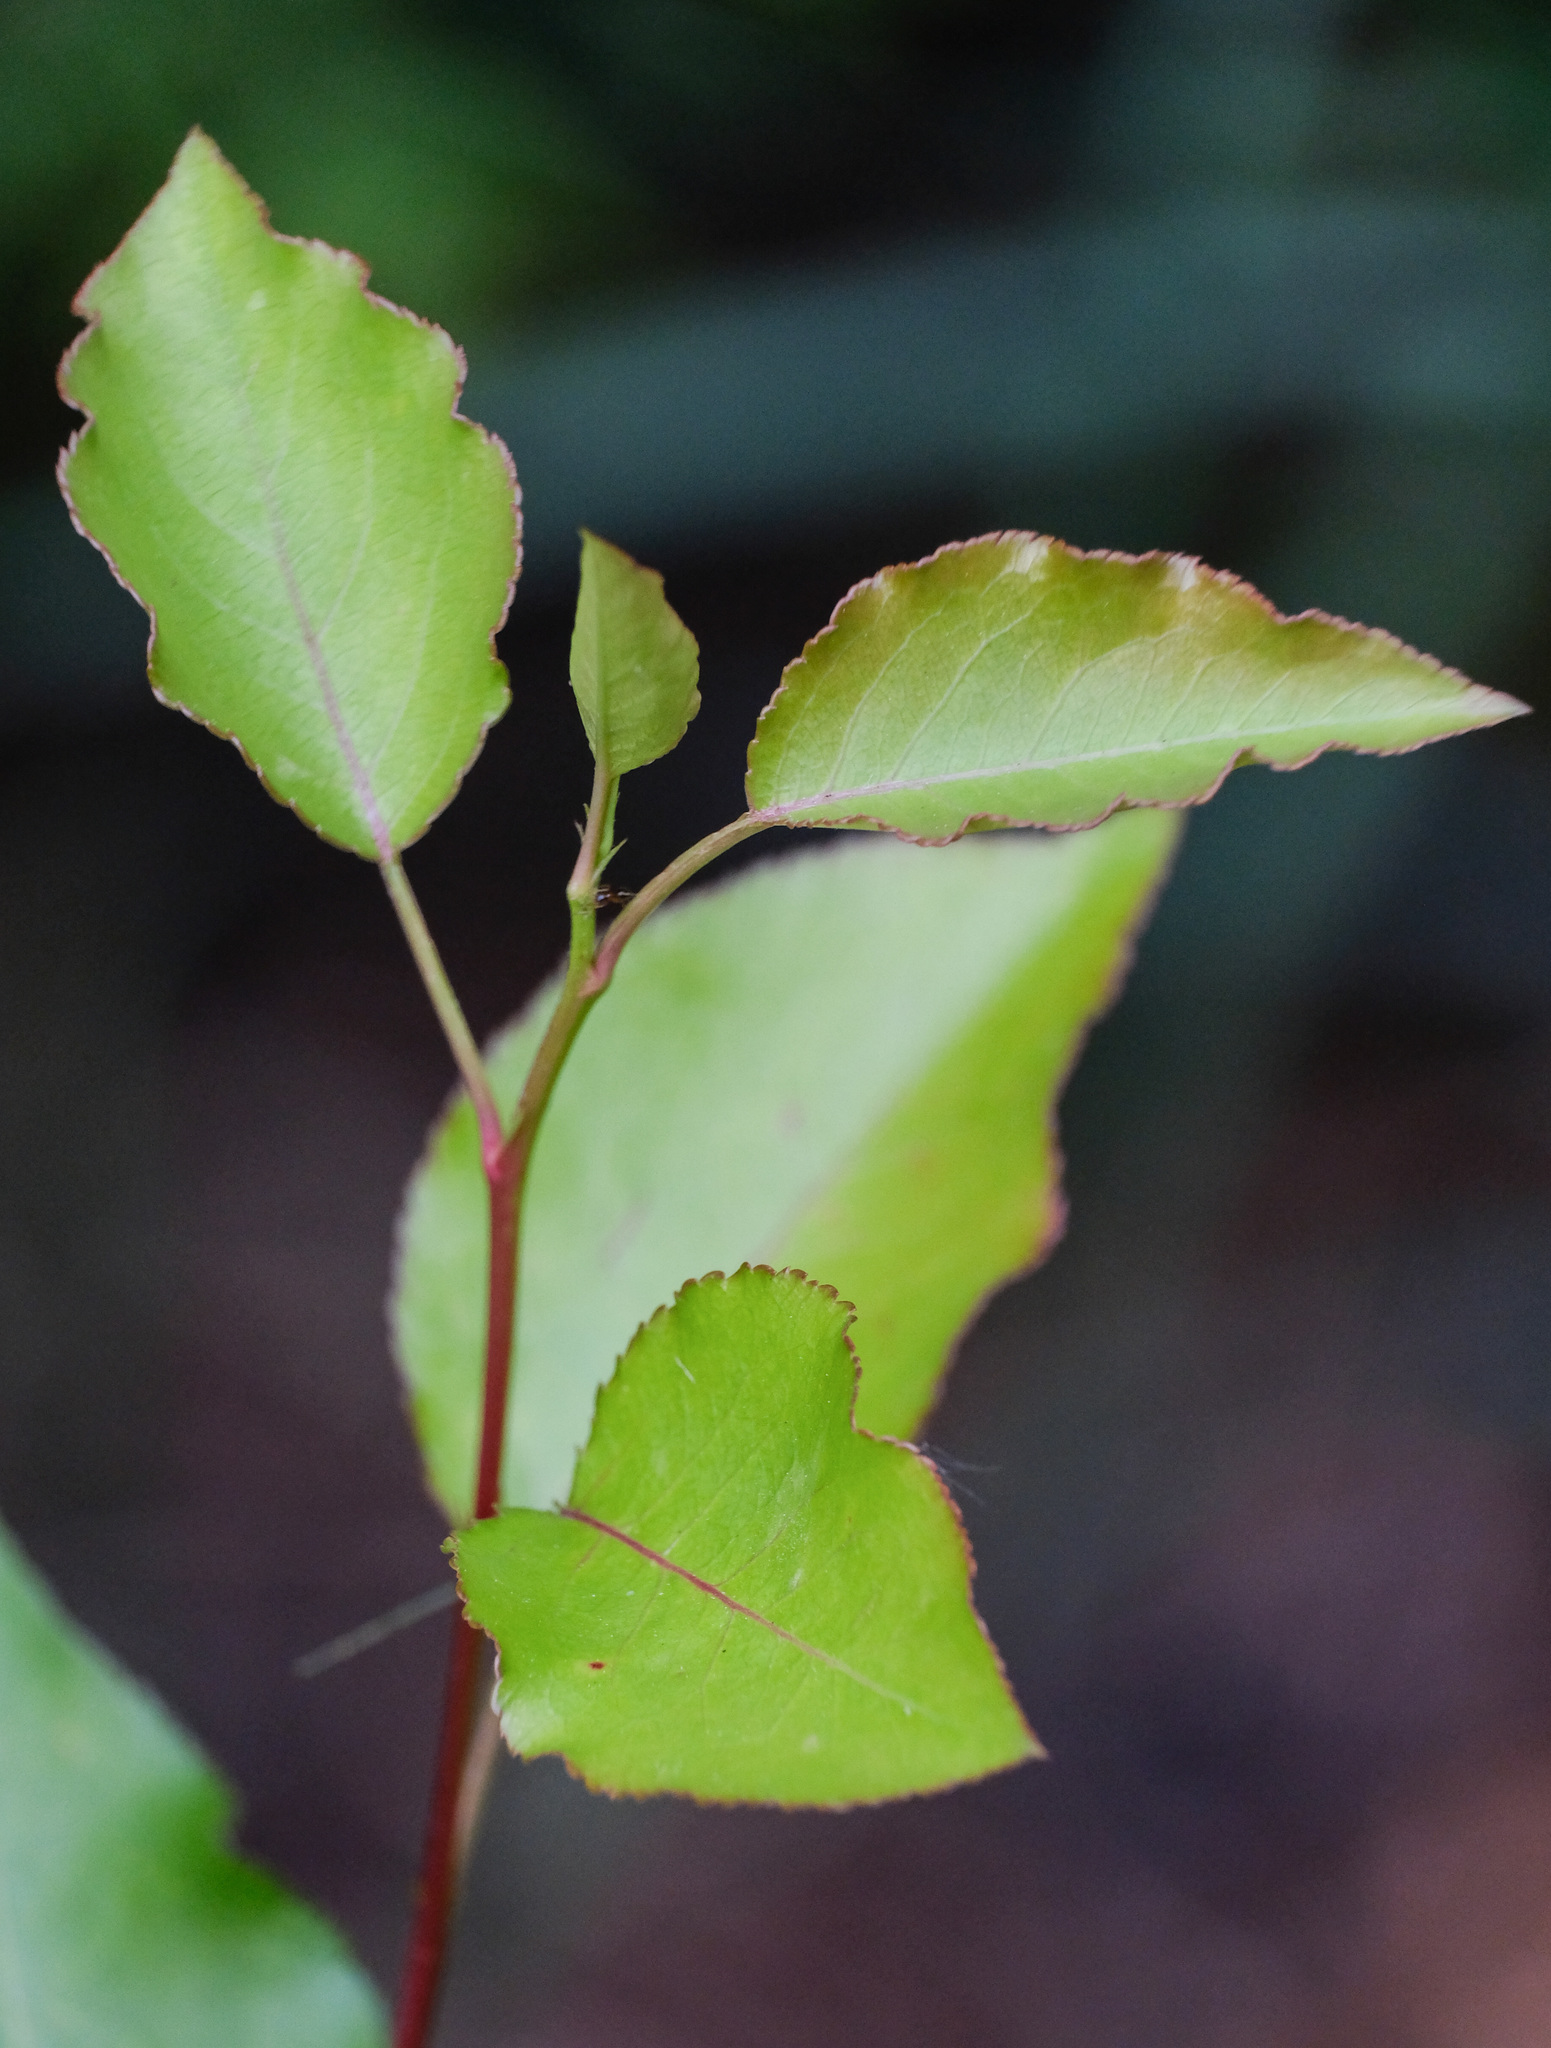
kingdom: Plantae
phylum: Tracheophyta
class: Magnoliopsida
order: Rosales
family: Rosaceae
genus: Pyrus
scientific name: Pyrus calleryana
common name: Callery pear
